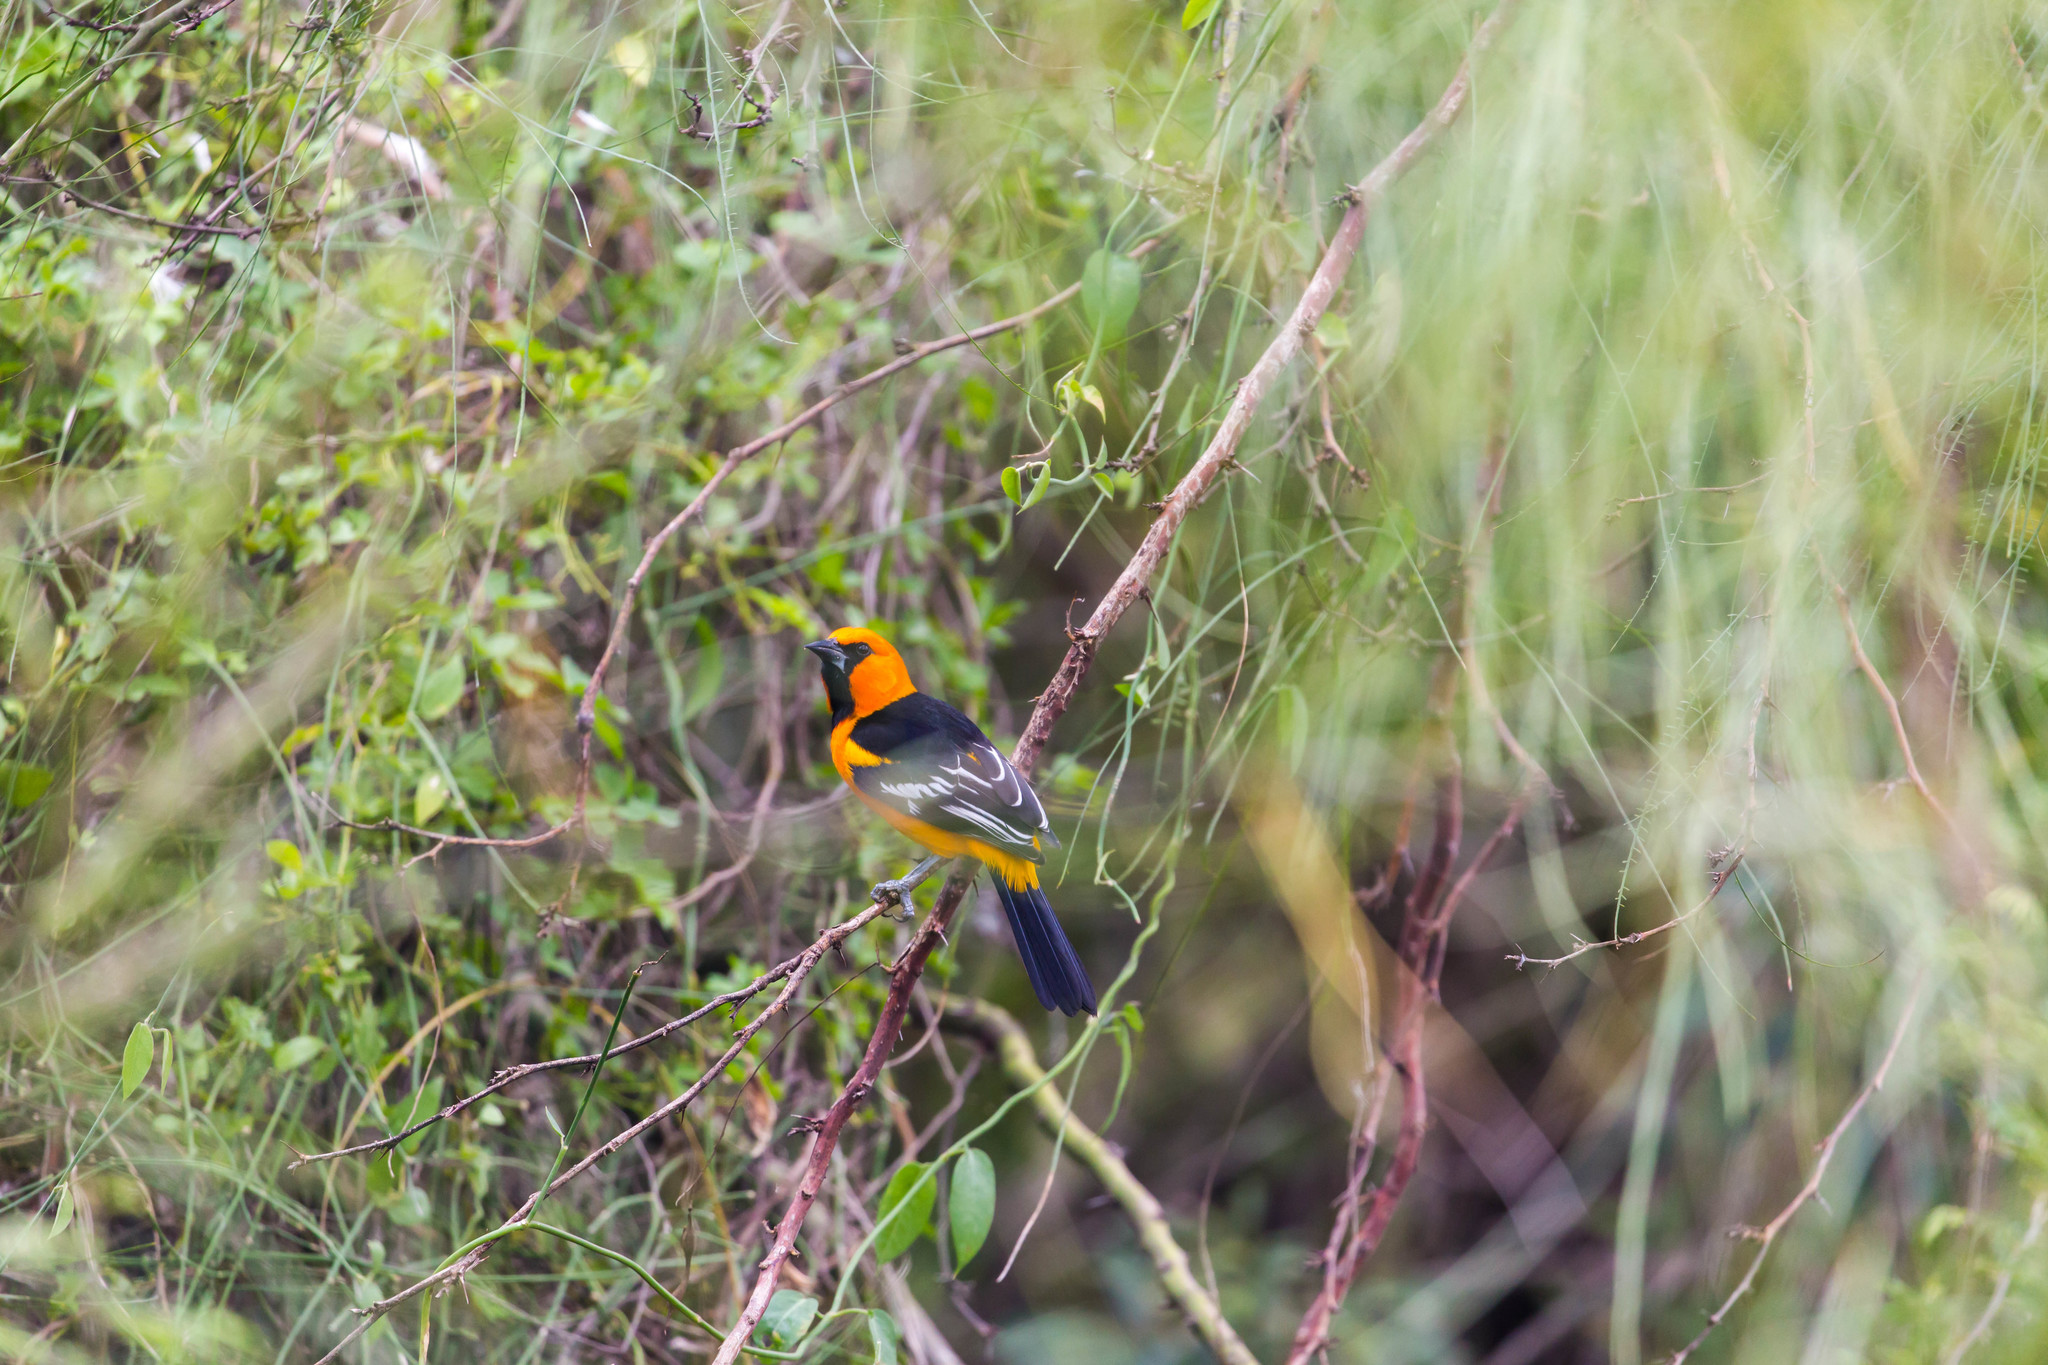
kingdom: Animalia
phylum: Chordata
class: Aves
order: Passeriformes
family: Icteridae
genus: Icterus
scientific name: Icterus gularis
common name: Altamira oriole
